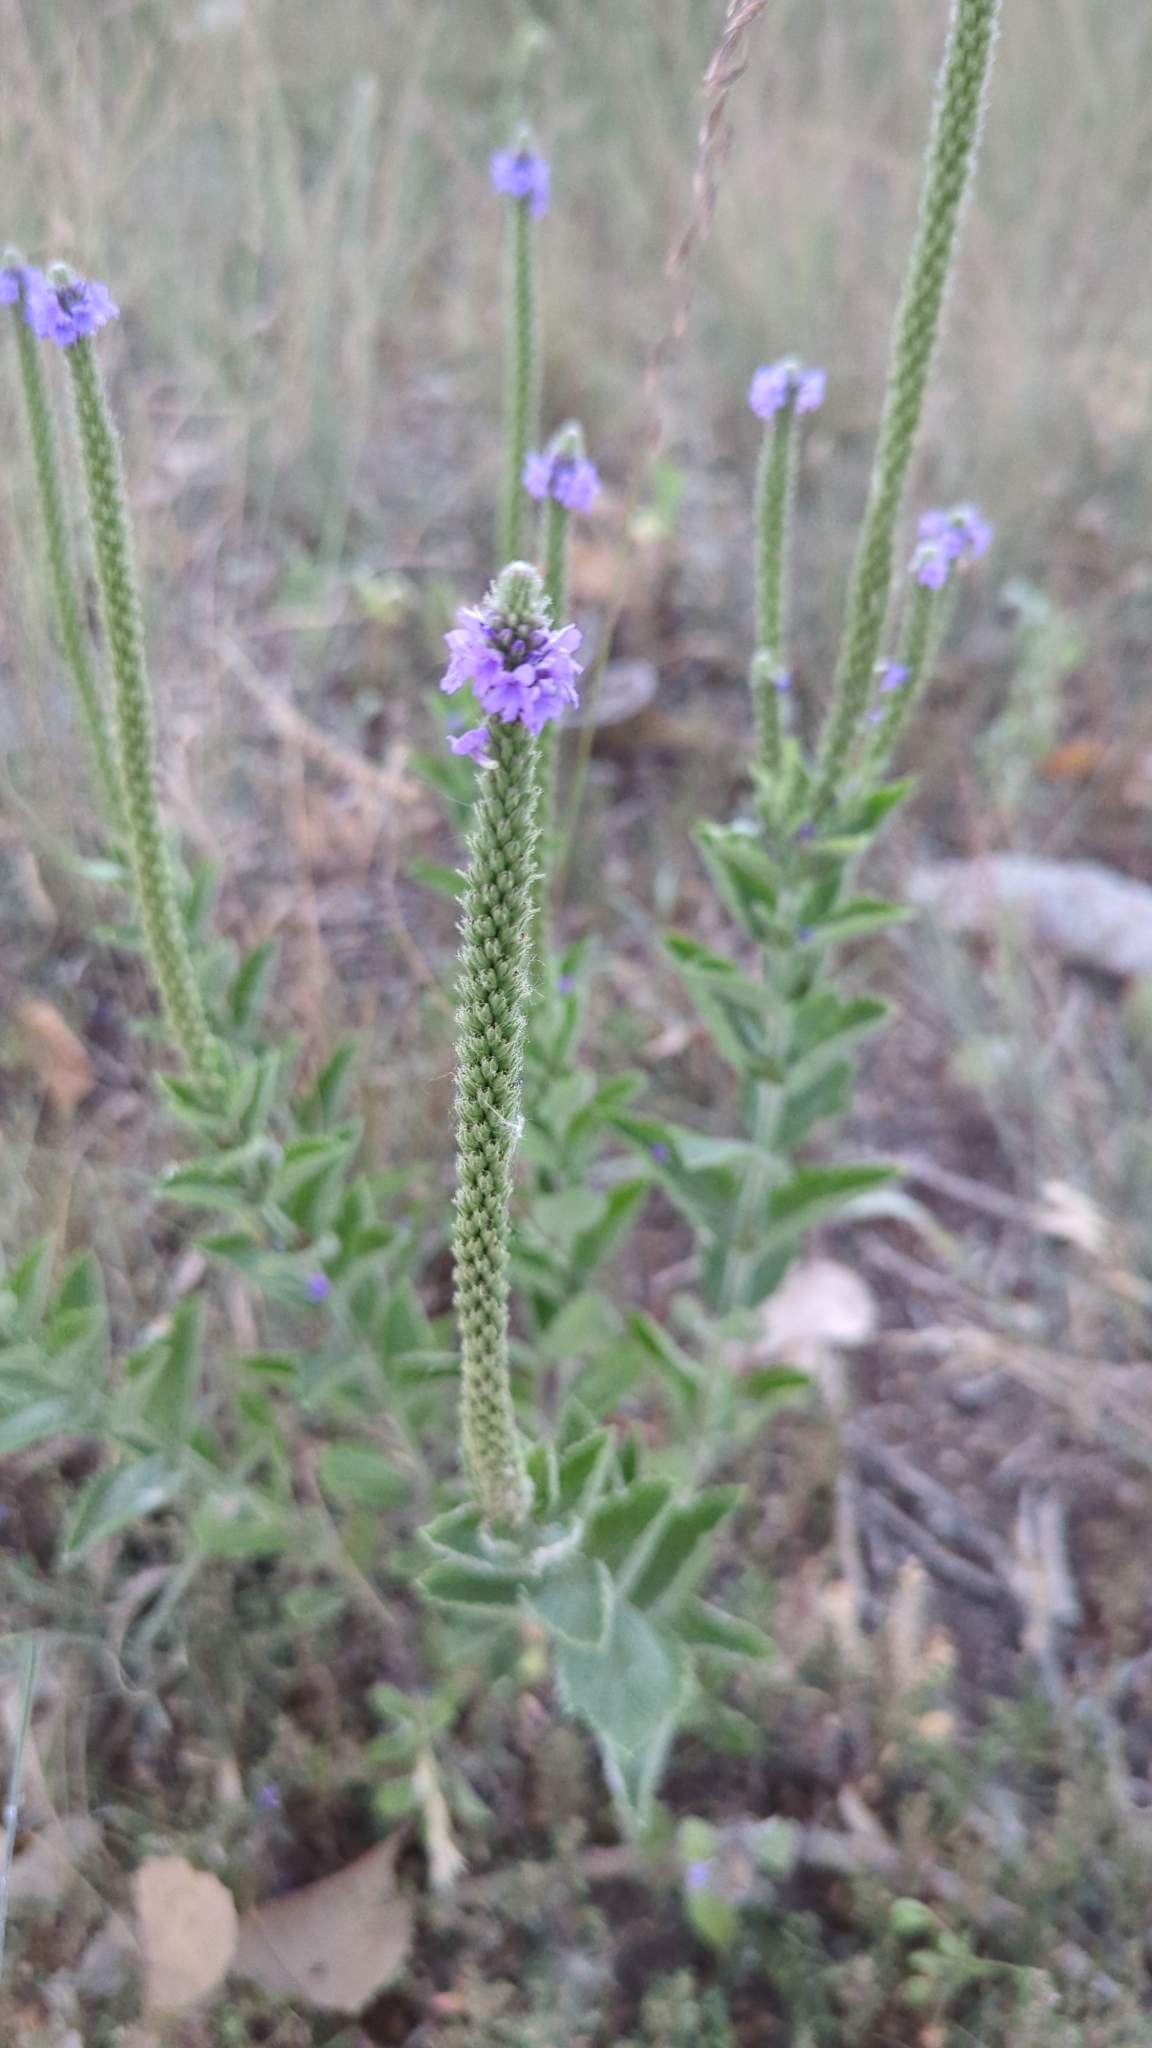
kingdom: Plantae
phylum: Tracheophyta
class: Magnoliopsida
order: Lamiales
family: Verbenaceae
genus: Verbena
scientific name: Verbena stricta
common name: Hoary vervain
